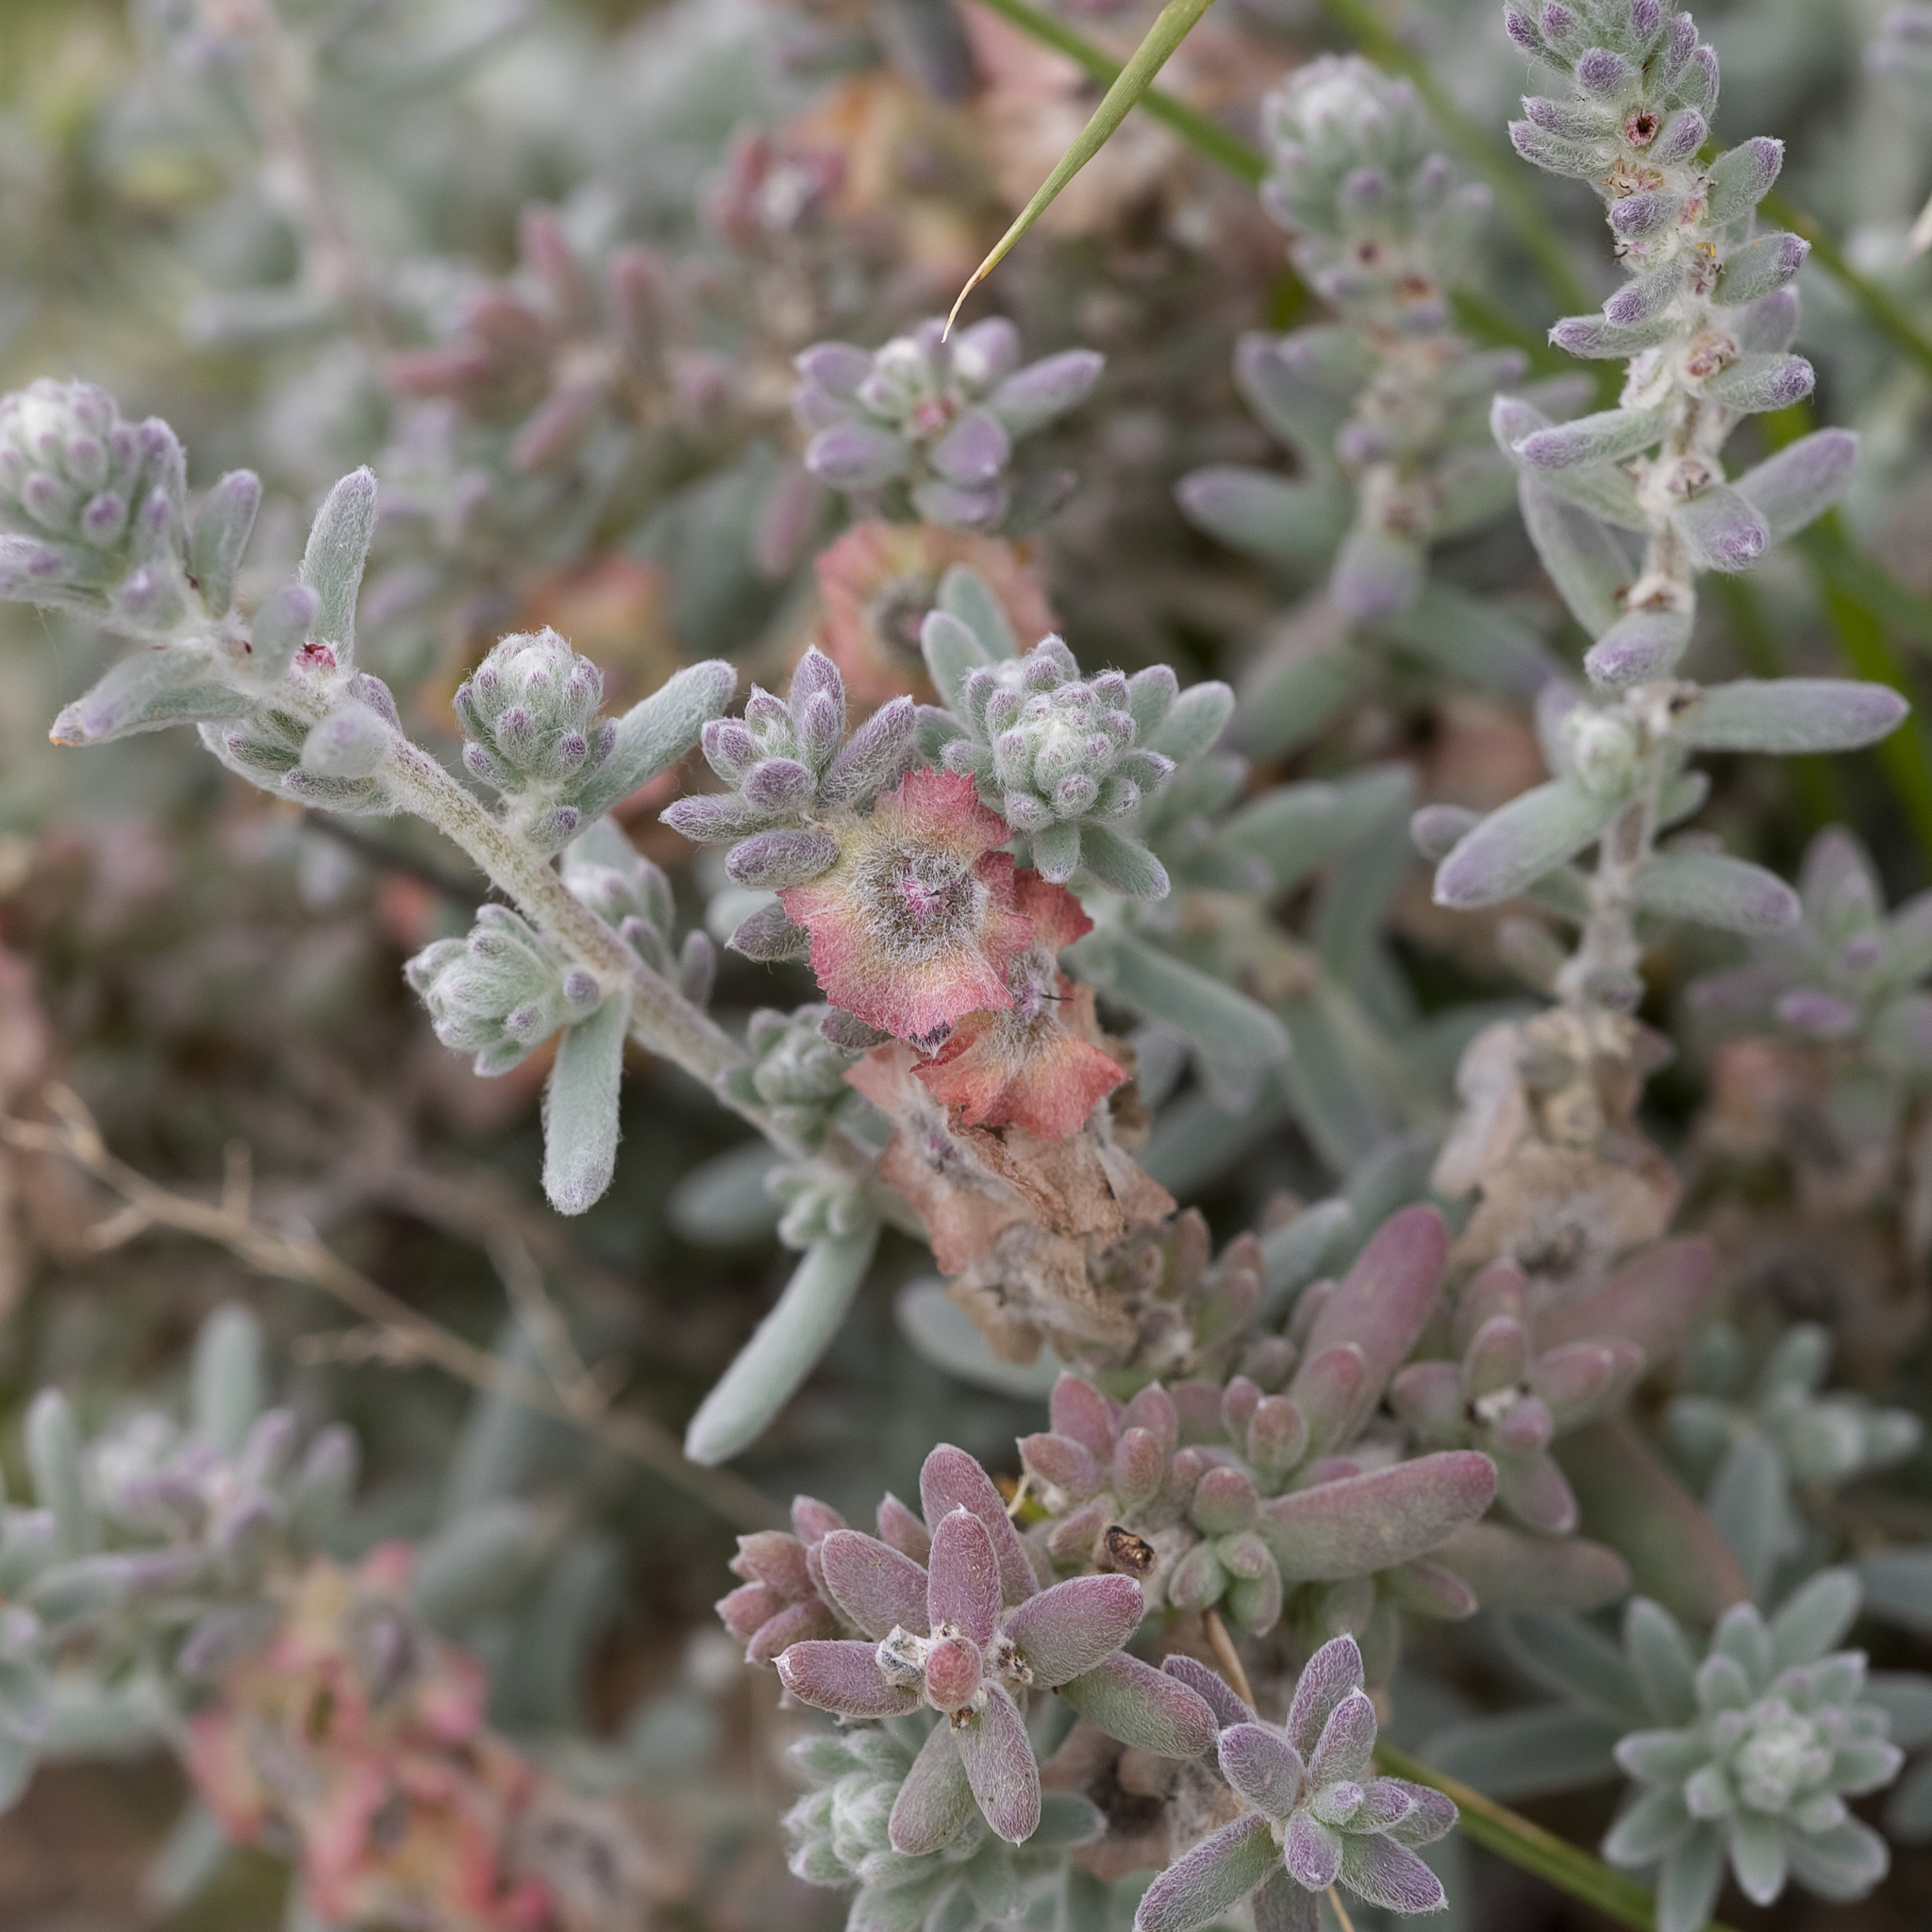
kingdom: Plantae
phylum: Tracheophyta
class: Magnoliopsida
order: Caryophyllales
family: Amaranthaceae
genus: Maireana
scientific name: Maireana trichoptera
